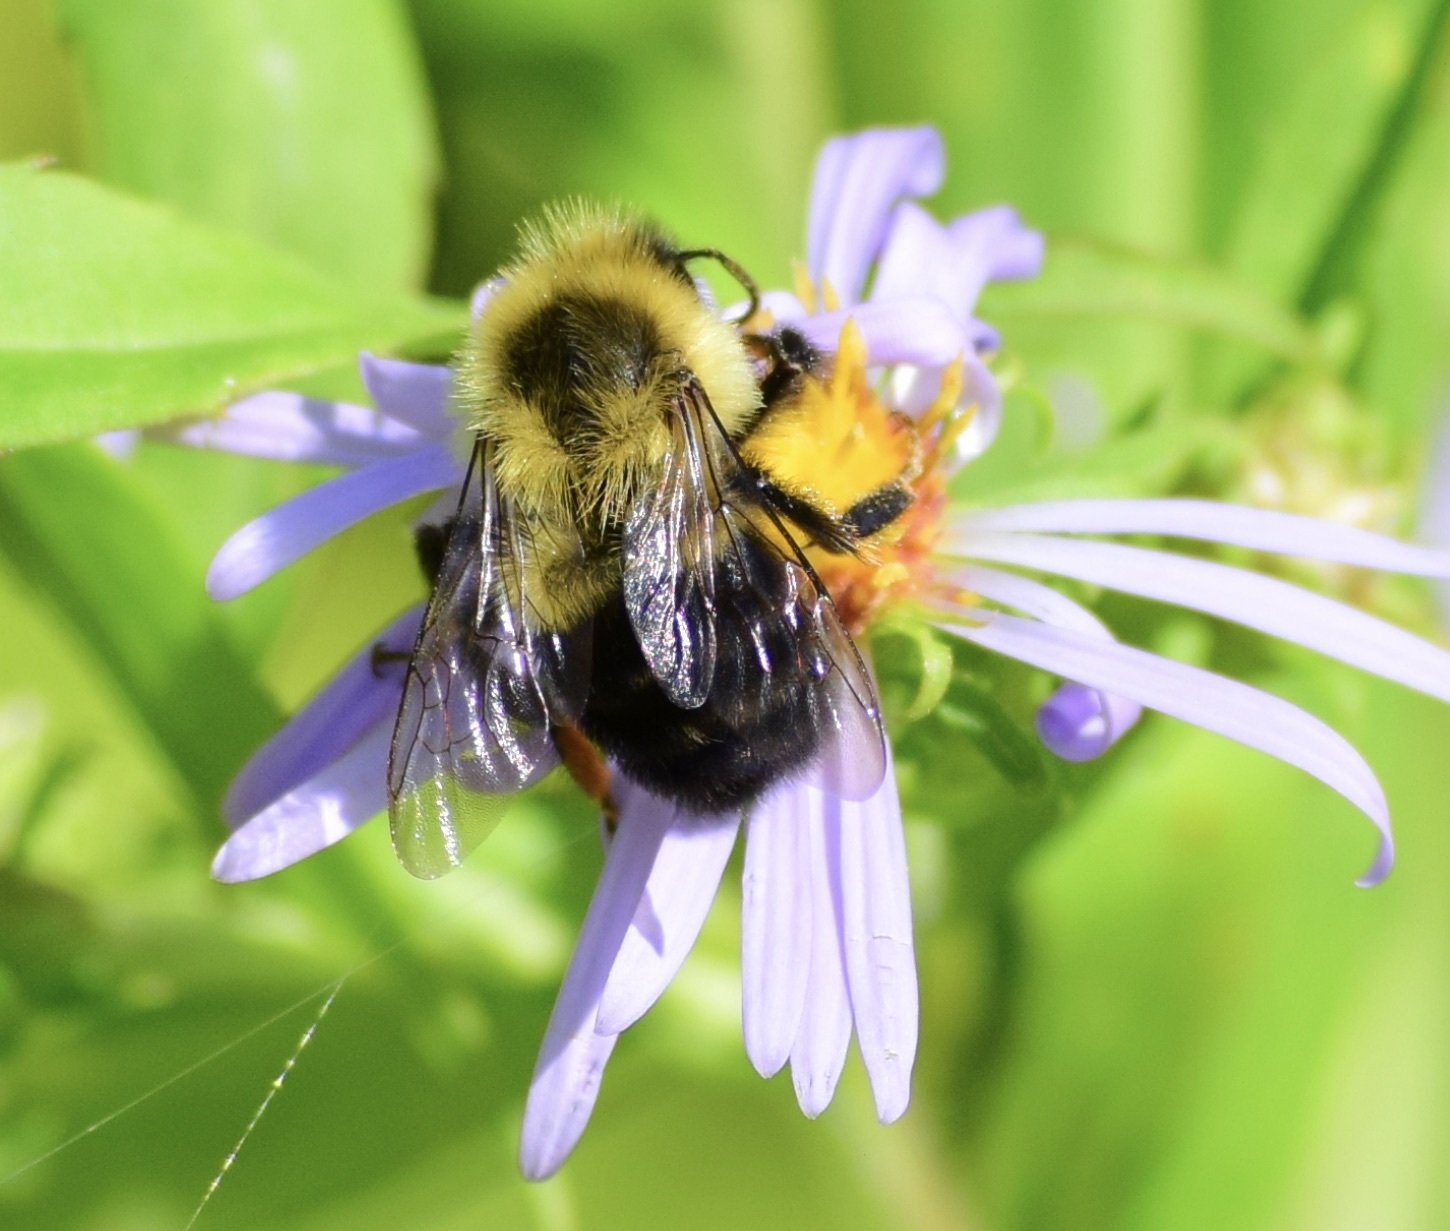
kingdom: Animalia
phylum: Arthropoda
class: Insecta
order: Hymenoptera
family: Apidae
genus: Bombus
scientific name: Bombus impatiens
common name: Common eastern bumble bee
